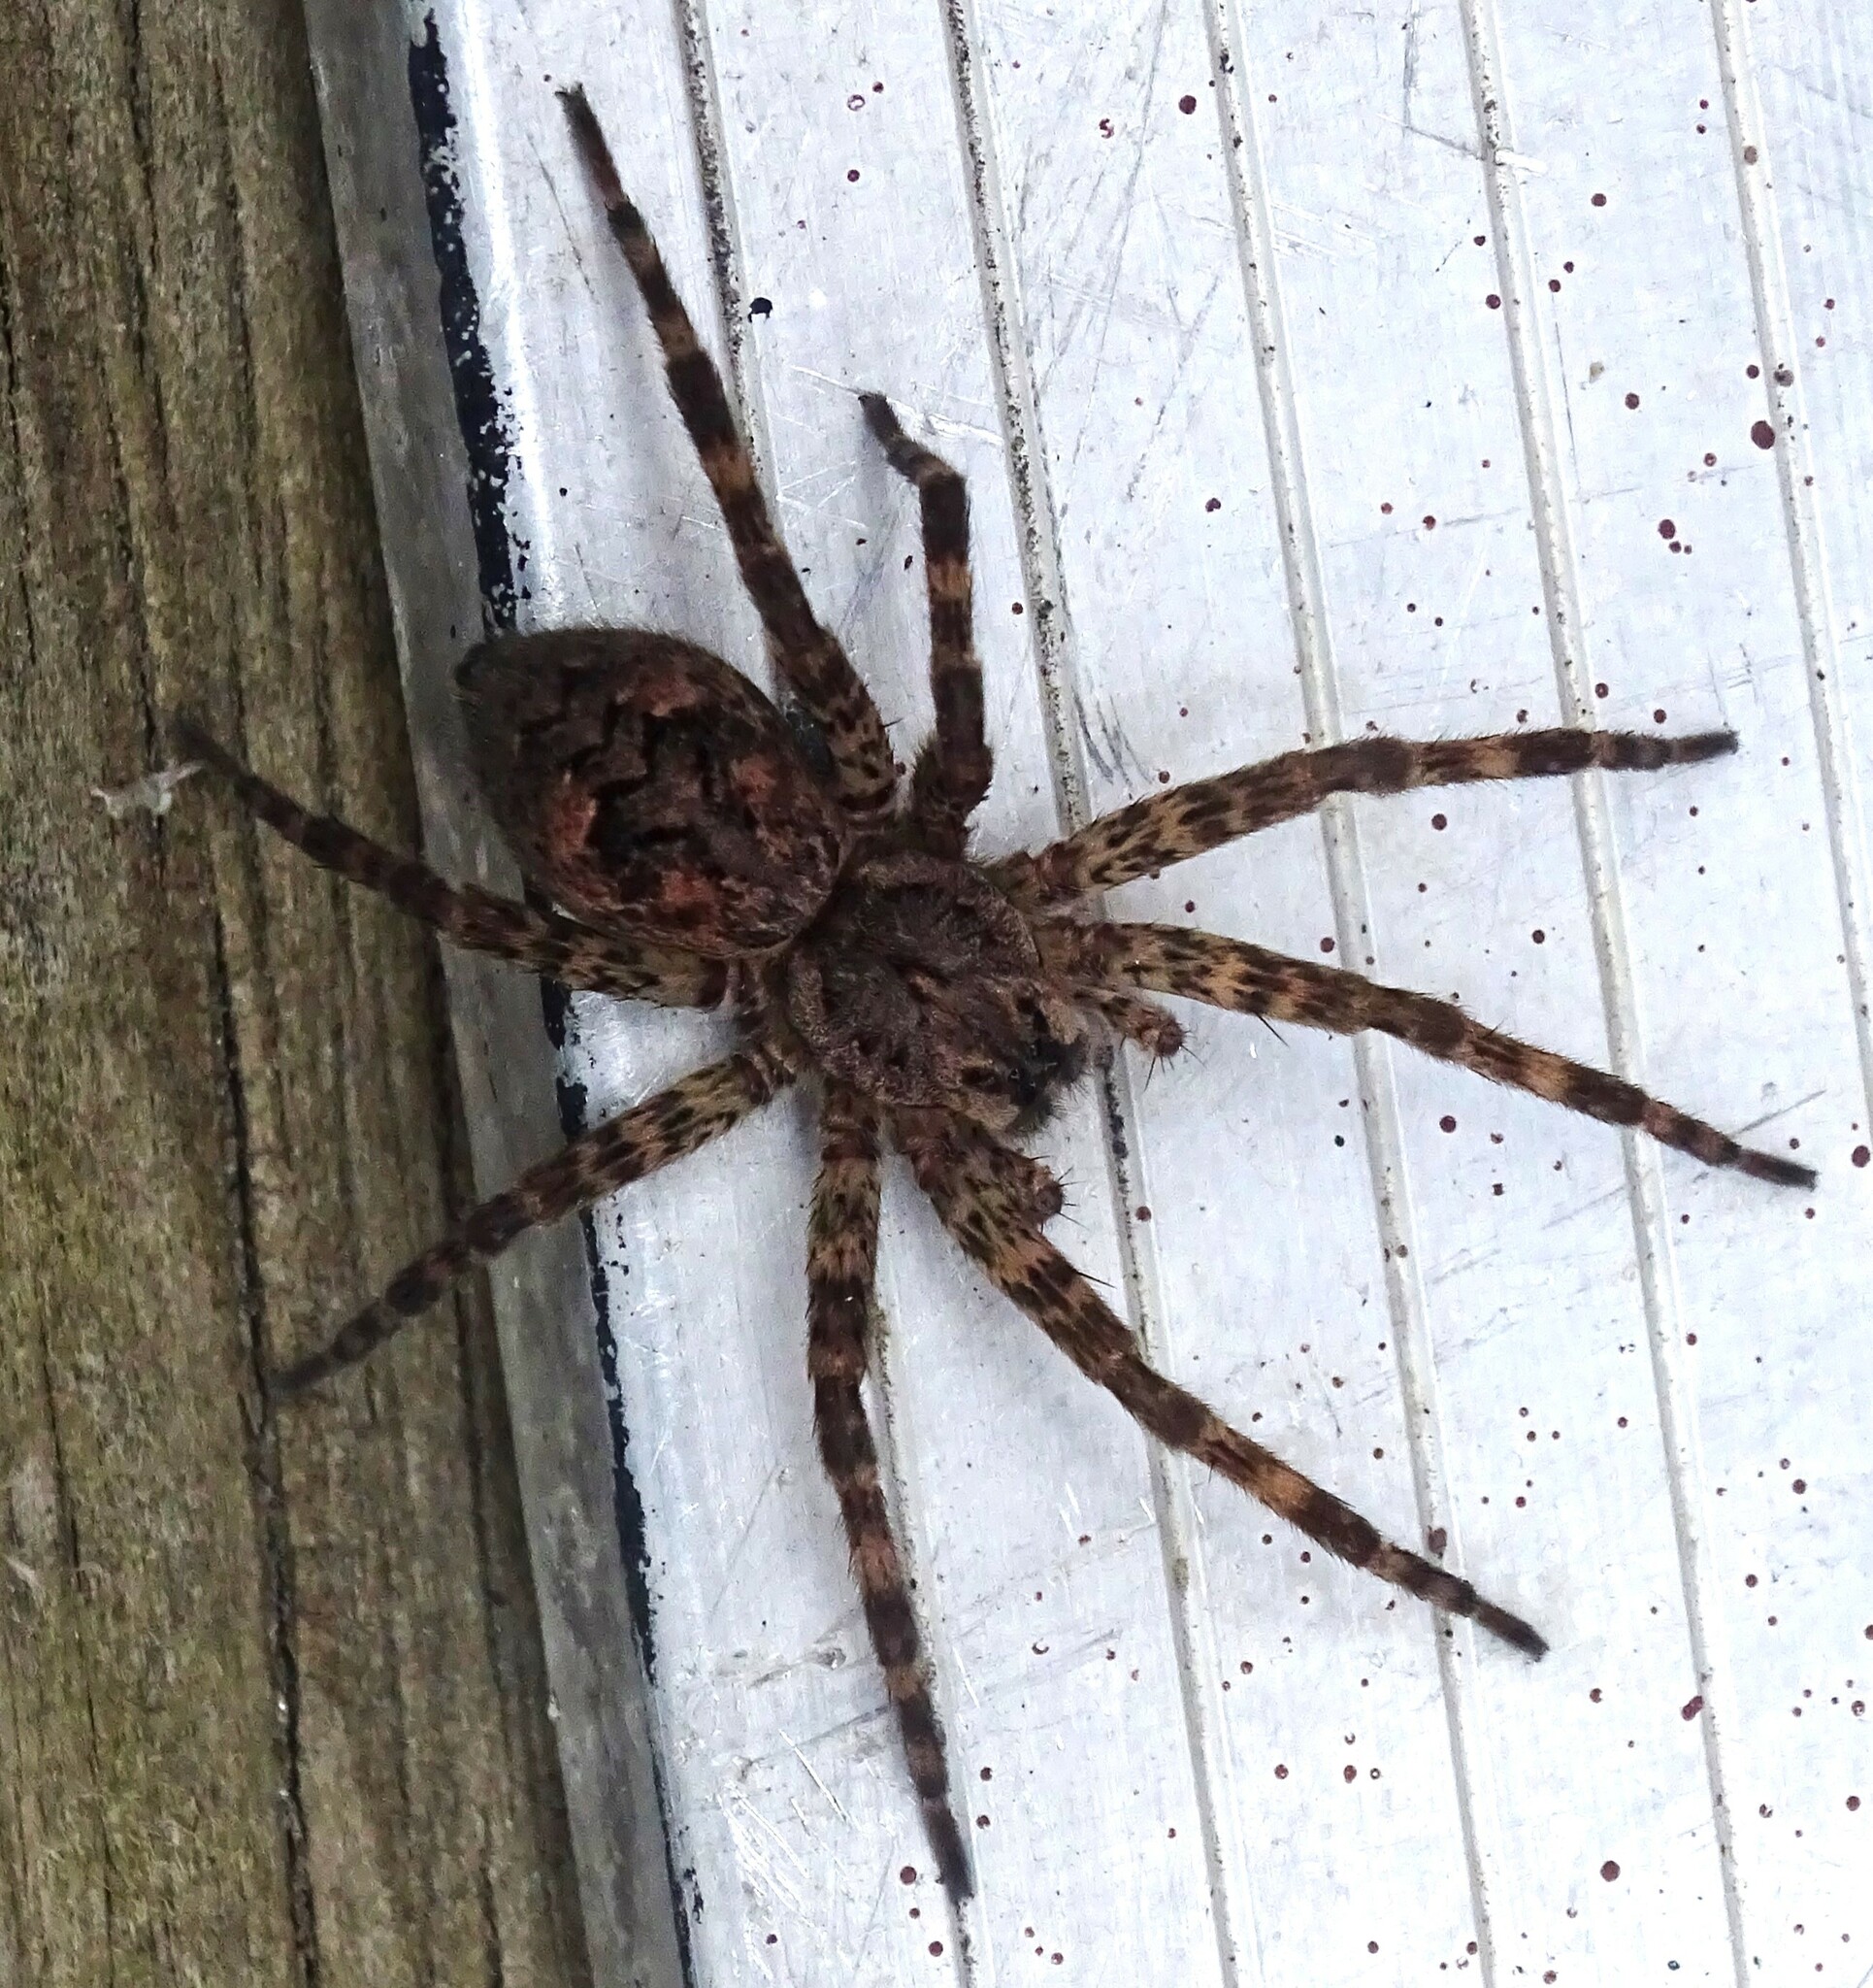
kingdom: Animalia
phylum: Arthropoda
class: Arachnida
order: Araneae
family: Pisauridae
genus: Dolomedes
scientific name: Dolomedes tenebrosus
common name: Dark fishing spider
